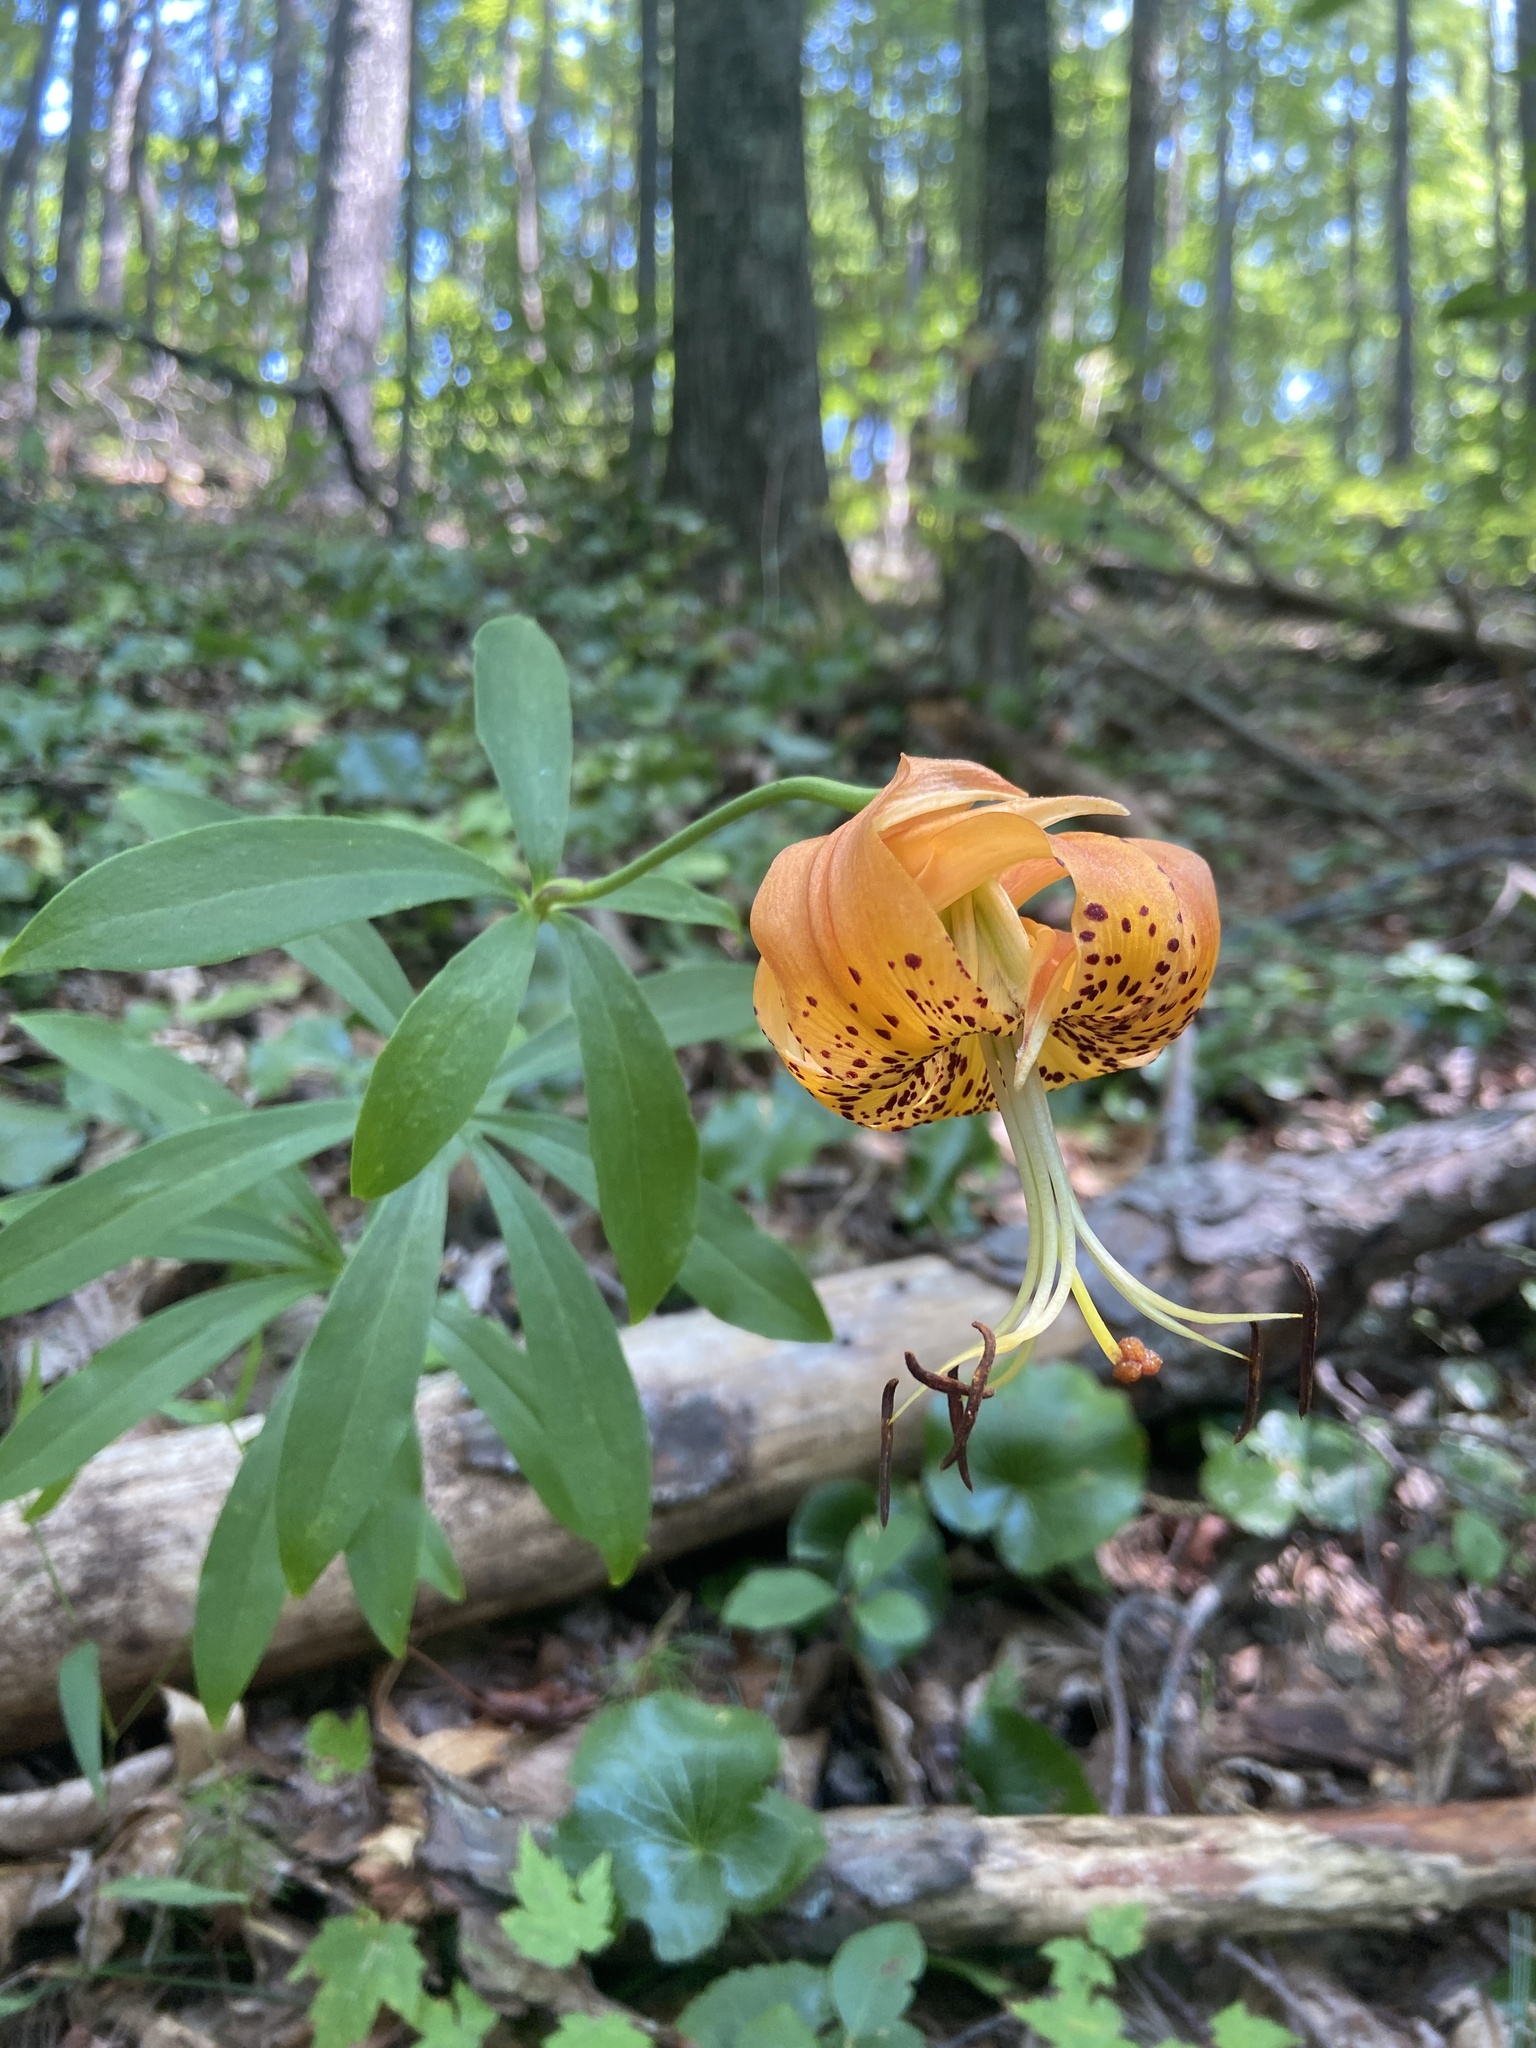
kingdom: Plantae
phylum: Tracheophyta
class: Liliopsida
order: Liliales
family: Liliaceae
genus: Lilium
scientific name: Lilium michauxii
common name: Carolina lily
